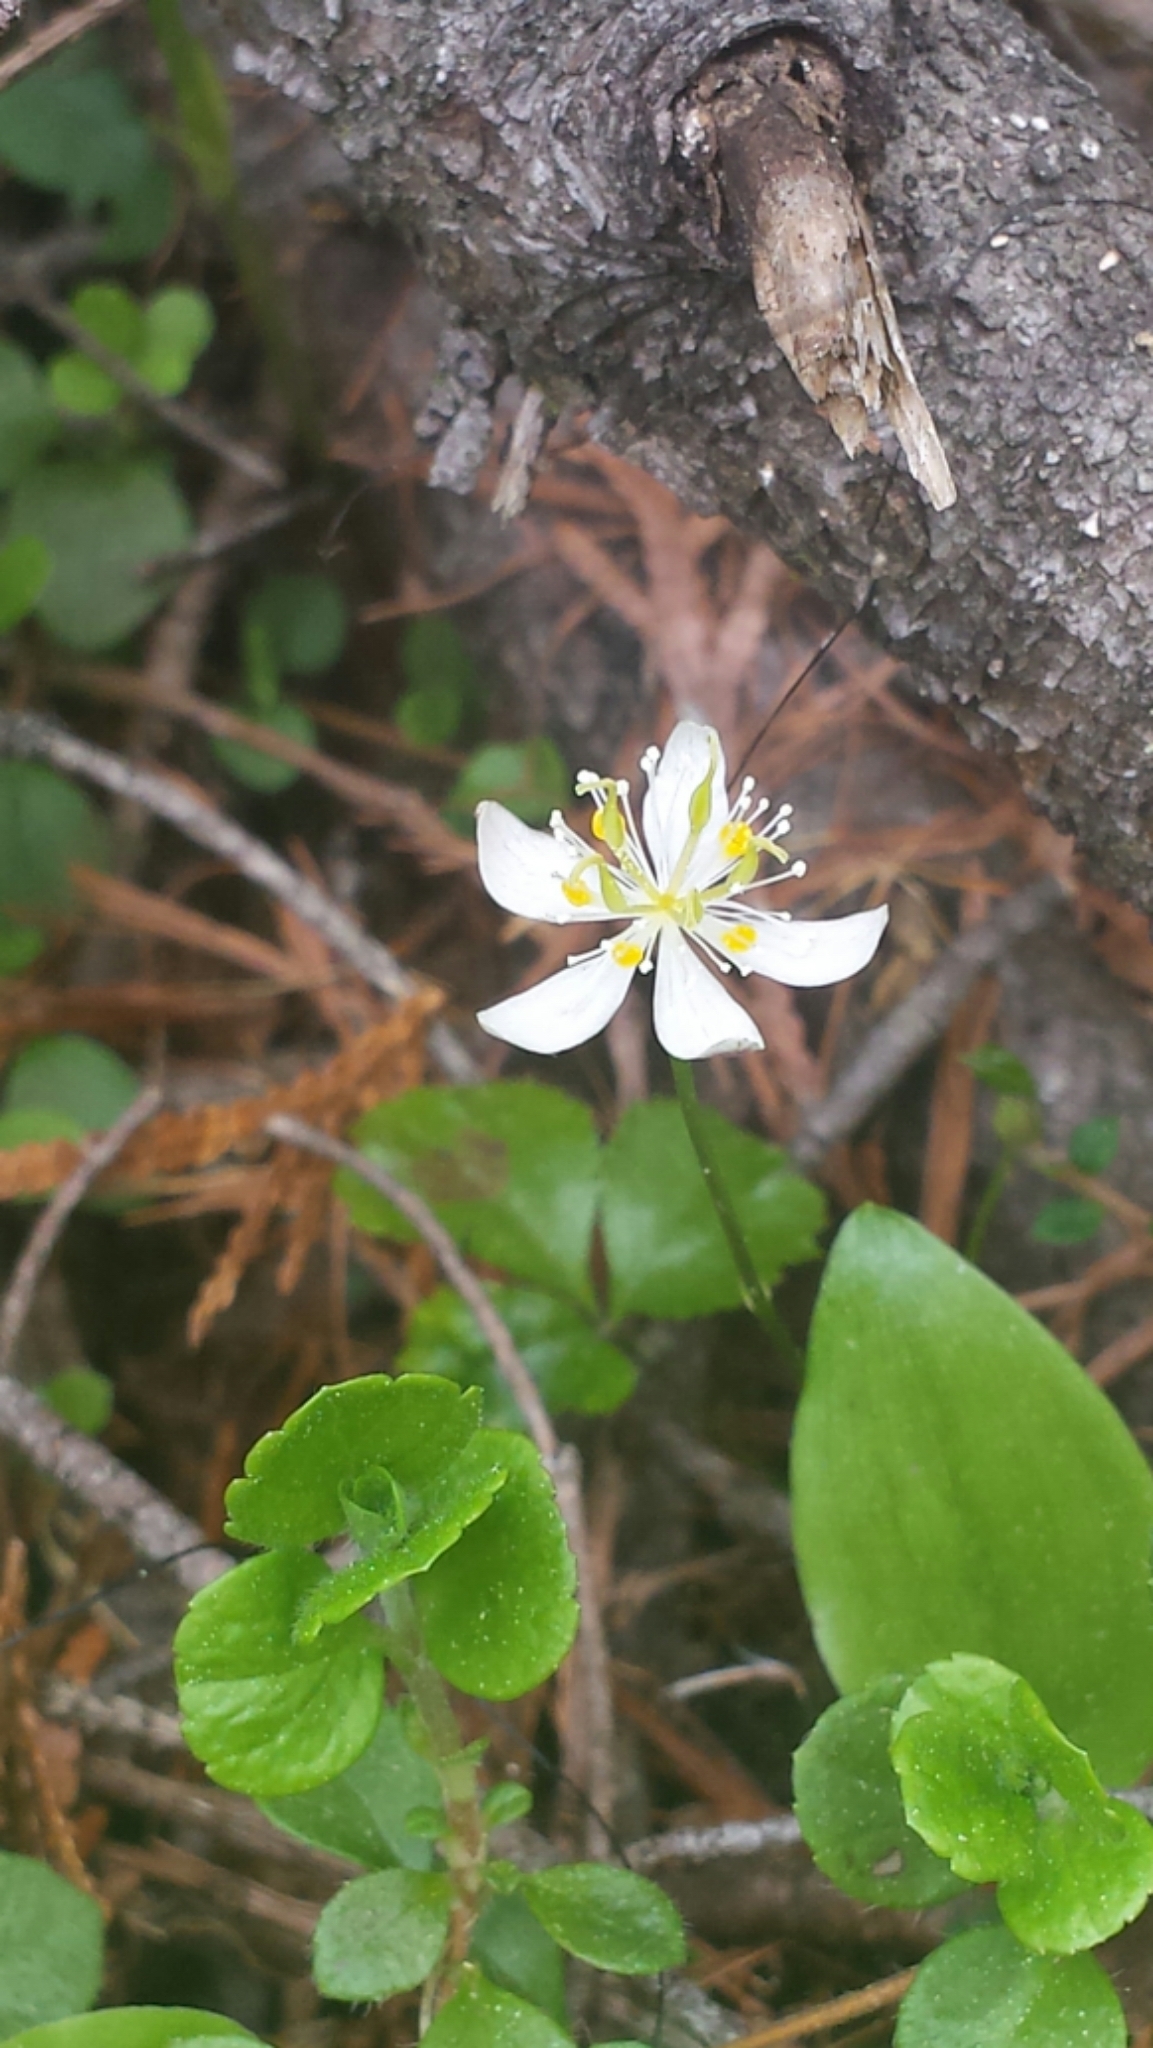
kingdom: Plantae
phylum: Tracheophyta
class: Magnoliopsida
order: Ranunculales
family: Ranunculaceae
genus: Coptis
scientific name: Coptis trifolia
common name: Canker-root
